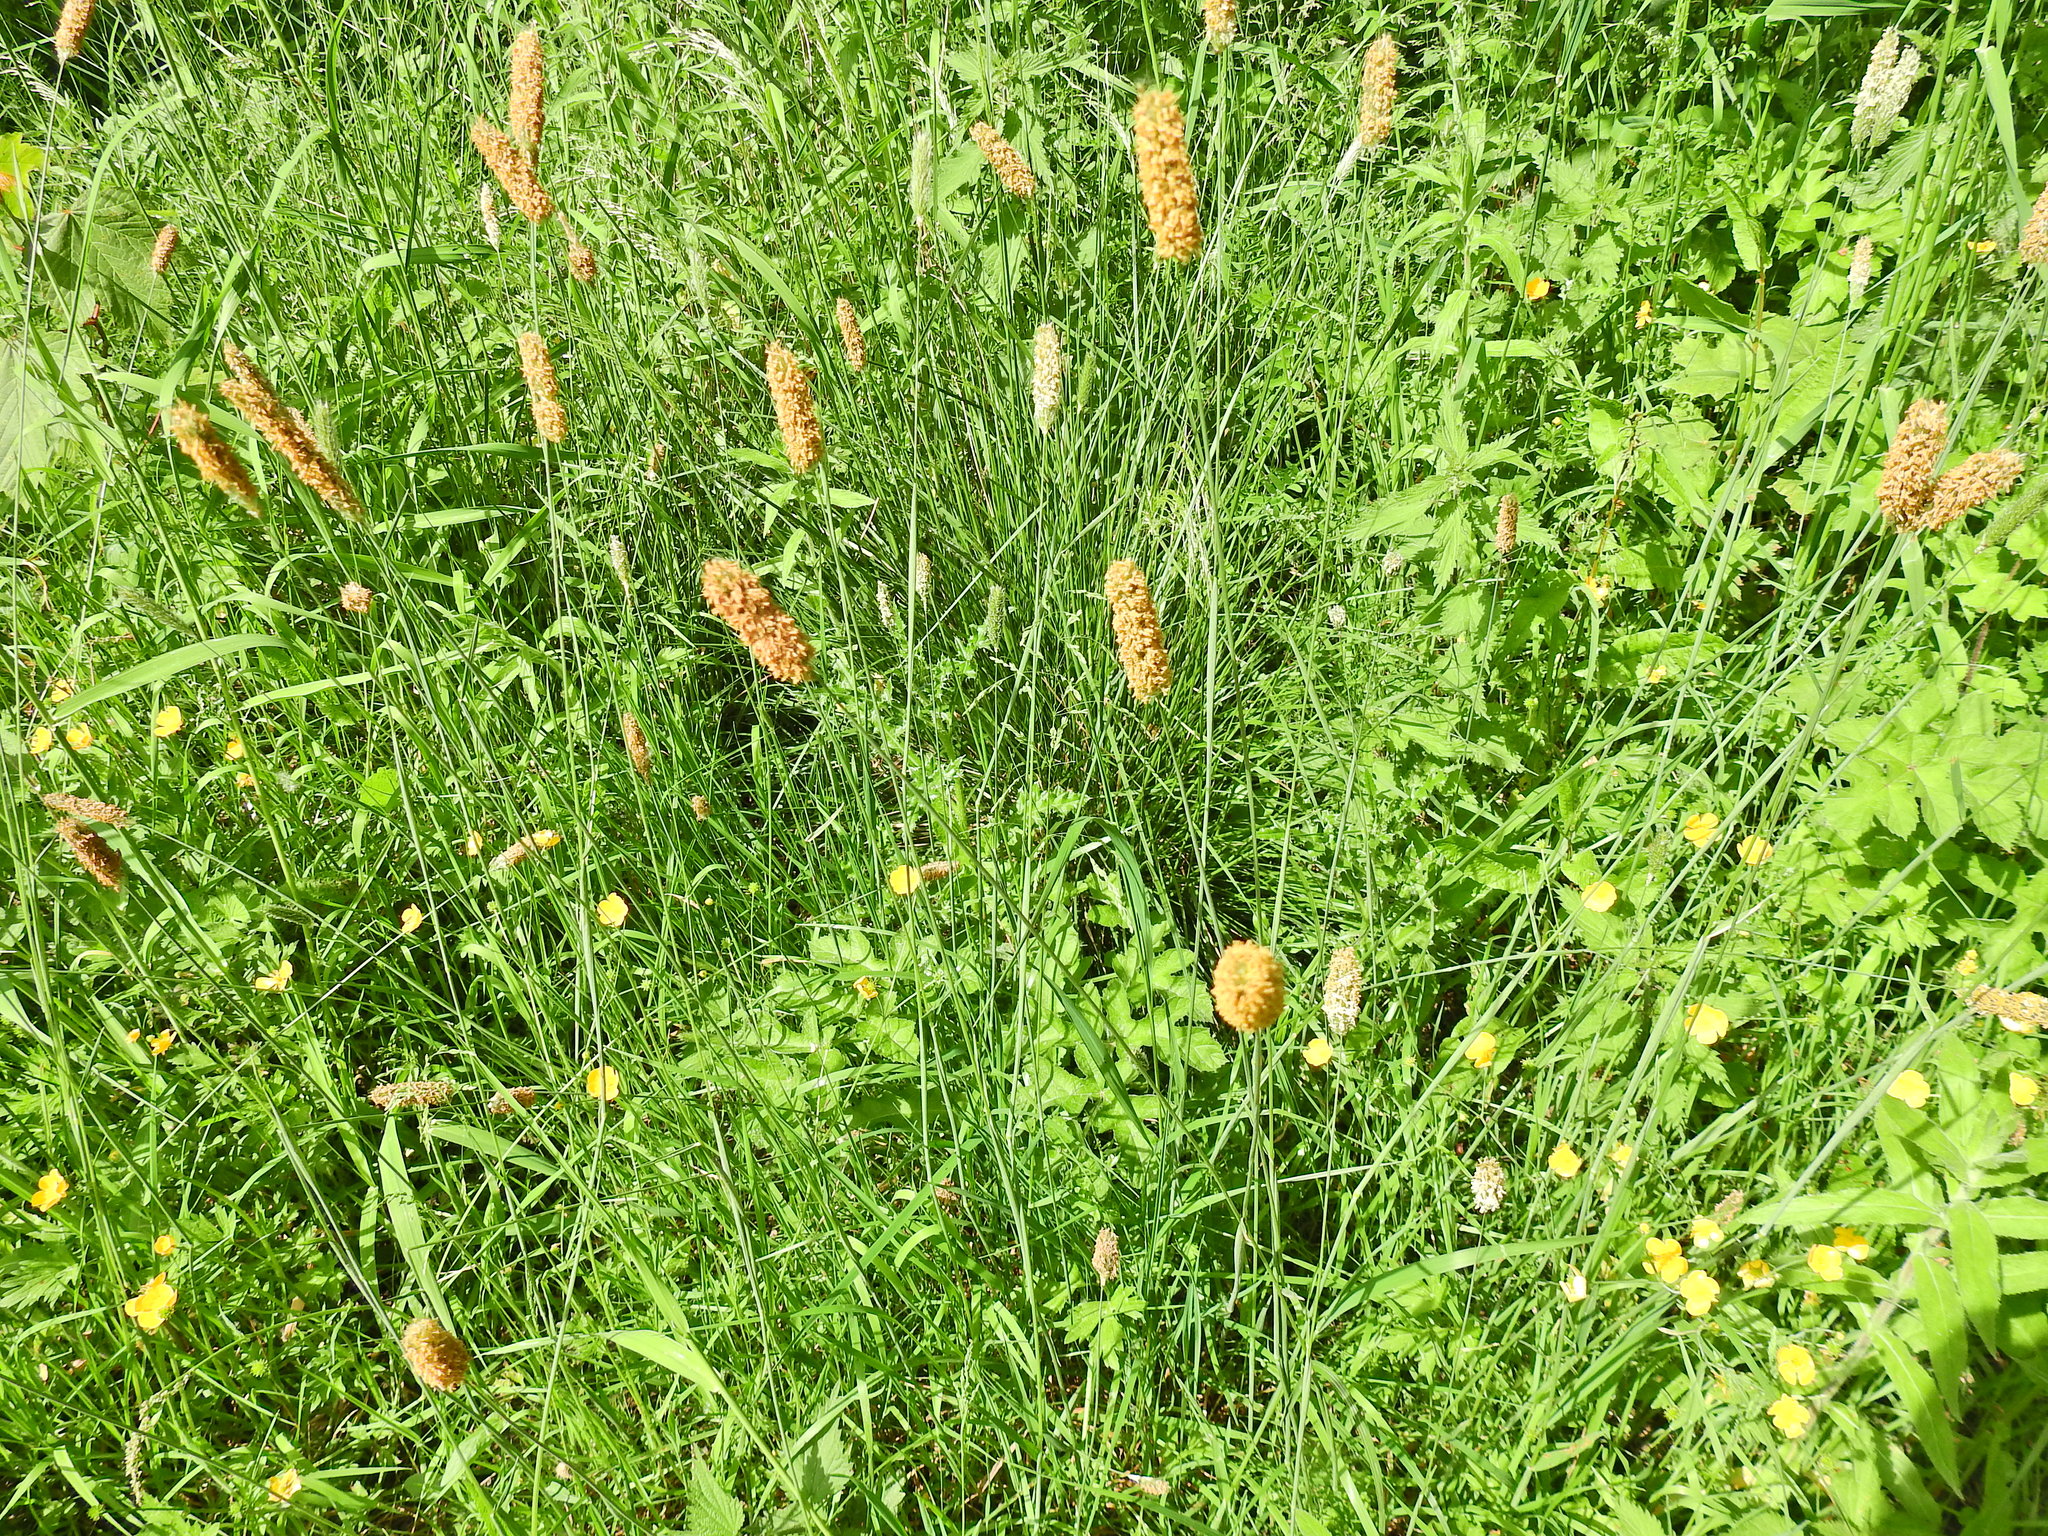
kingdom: Plantae
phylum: Tracheophyta
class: Liliopsida
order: Poales
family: Poaceae
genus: Alopecurus
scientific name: Alopecurus pratensis
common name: Meadow foxtail
